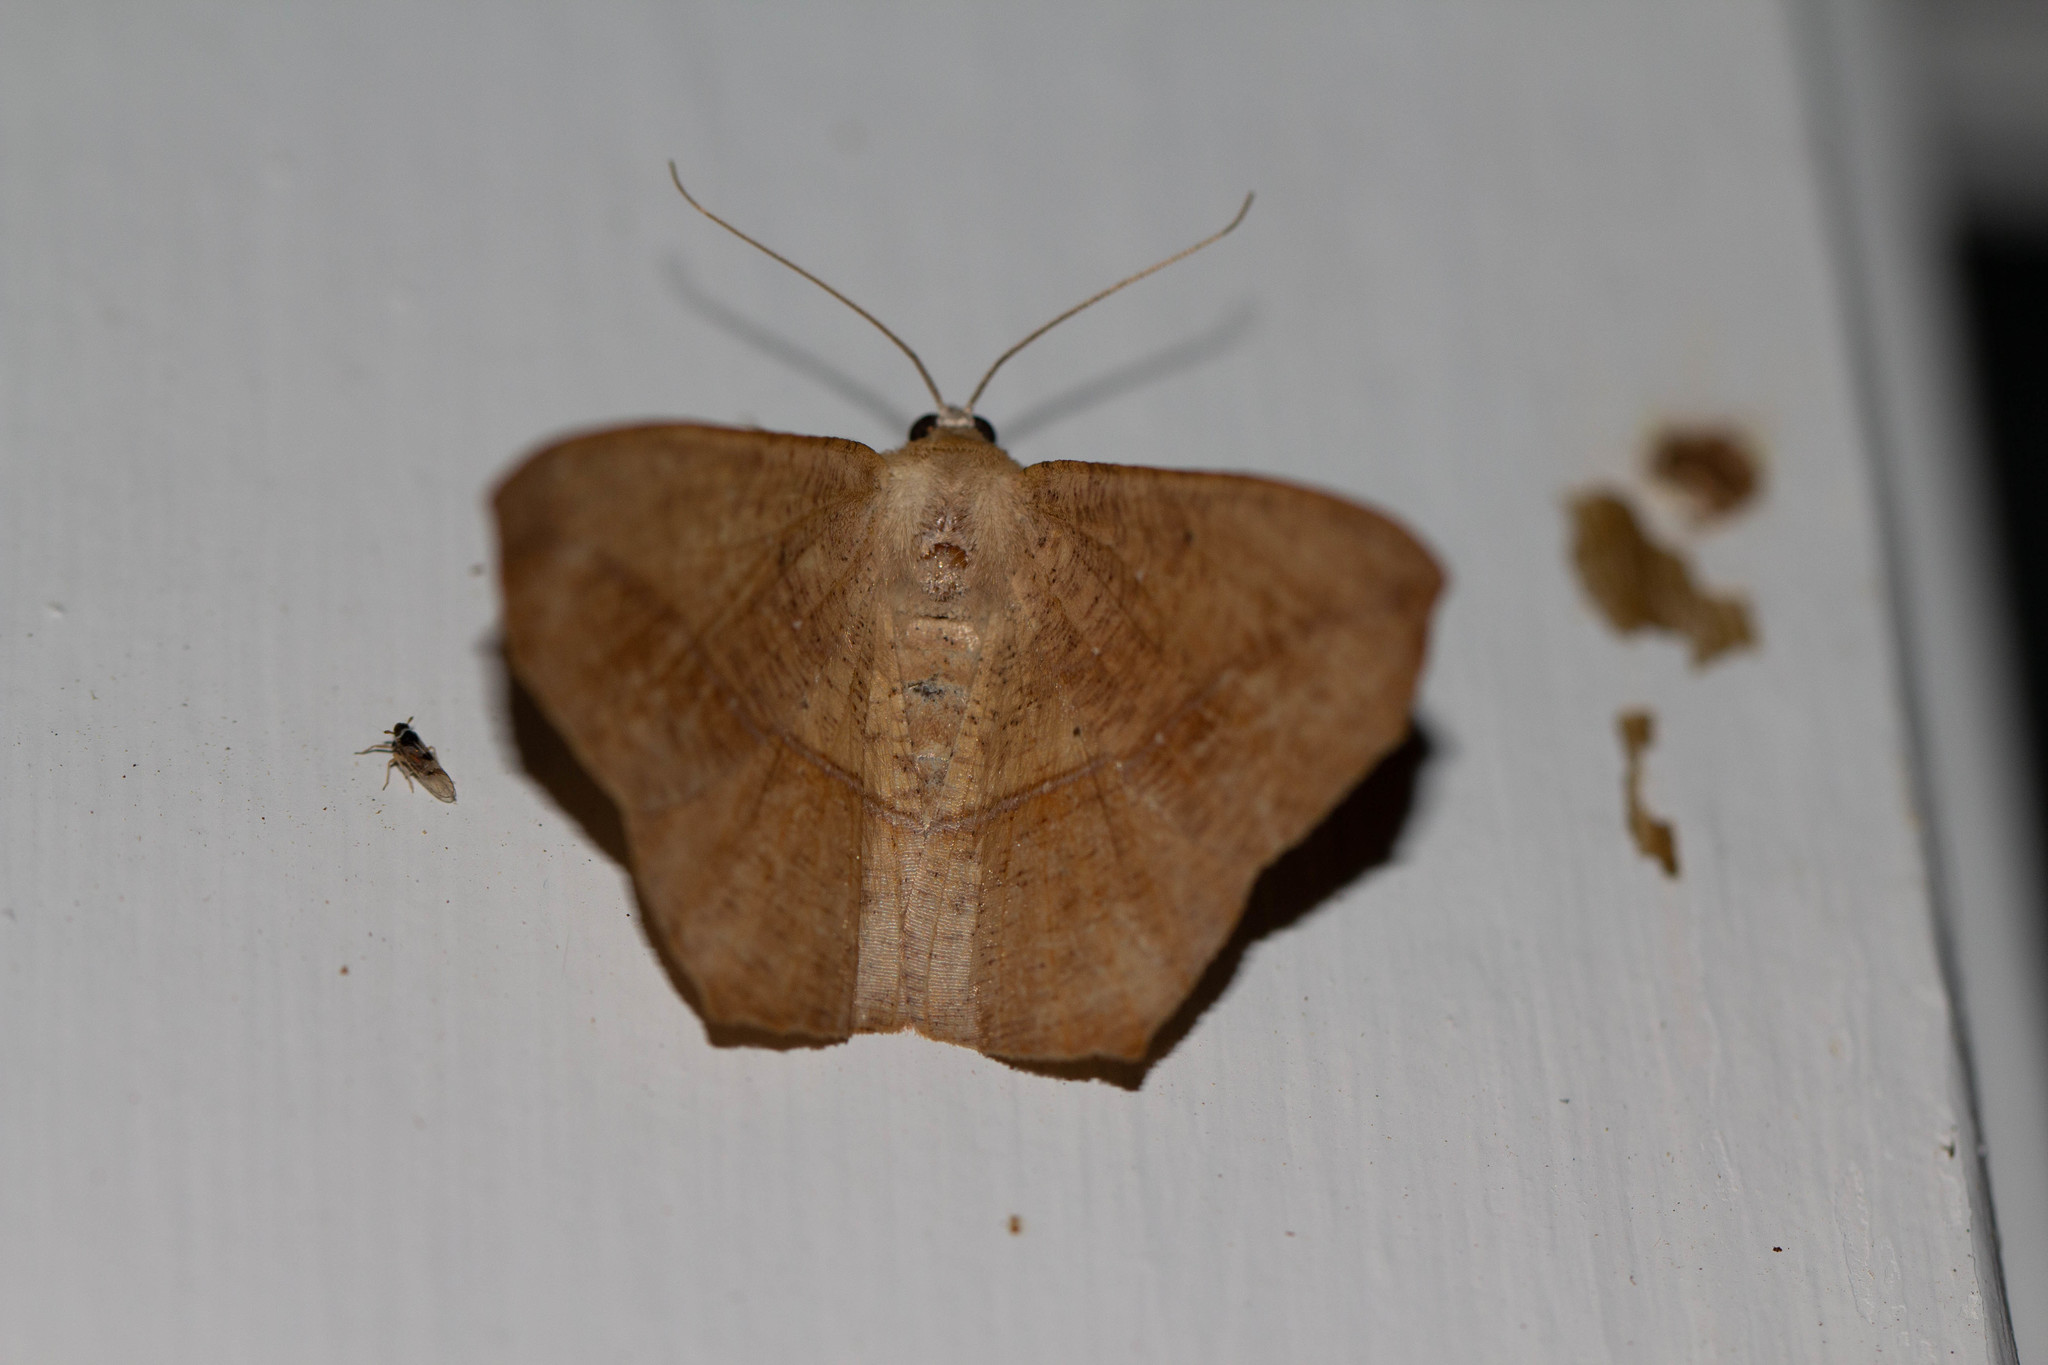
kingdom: Animalia
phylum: Arthropoda
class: Insecta
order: Lepidoptera
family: Geometridae
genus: Prochoerodes
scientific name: Prochoerodes lineola
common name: Large maple spanworm
